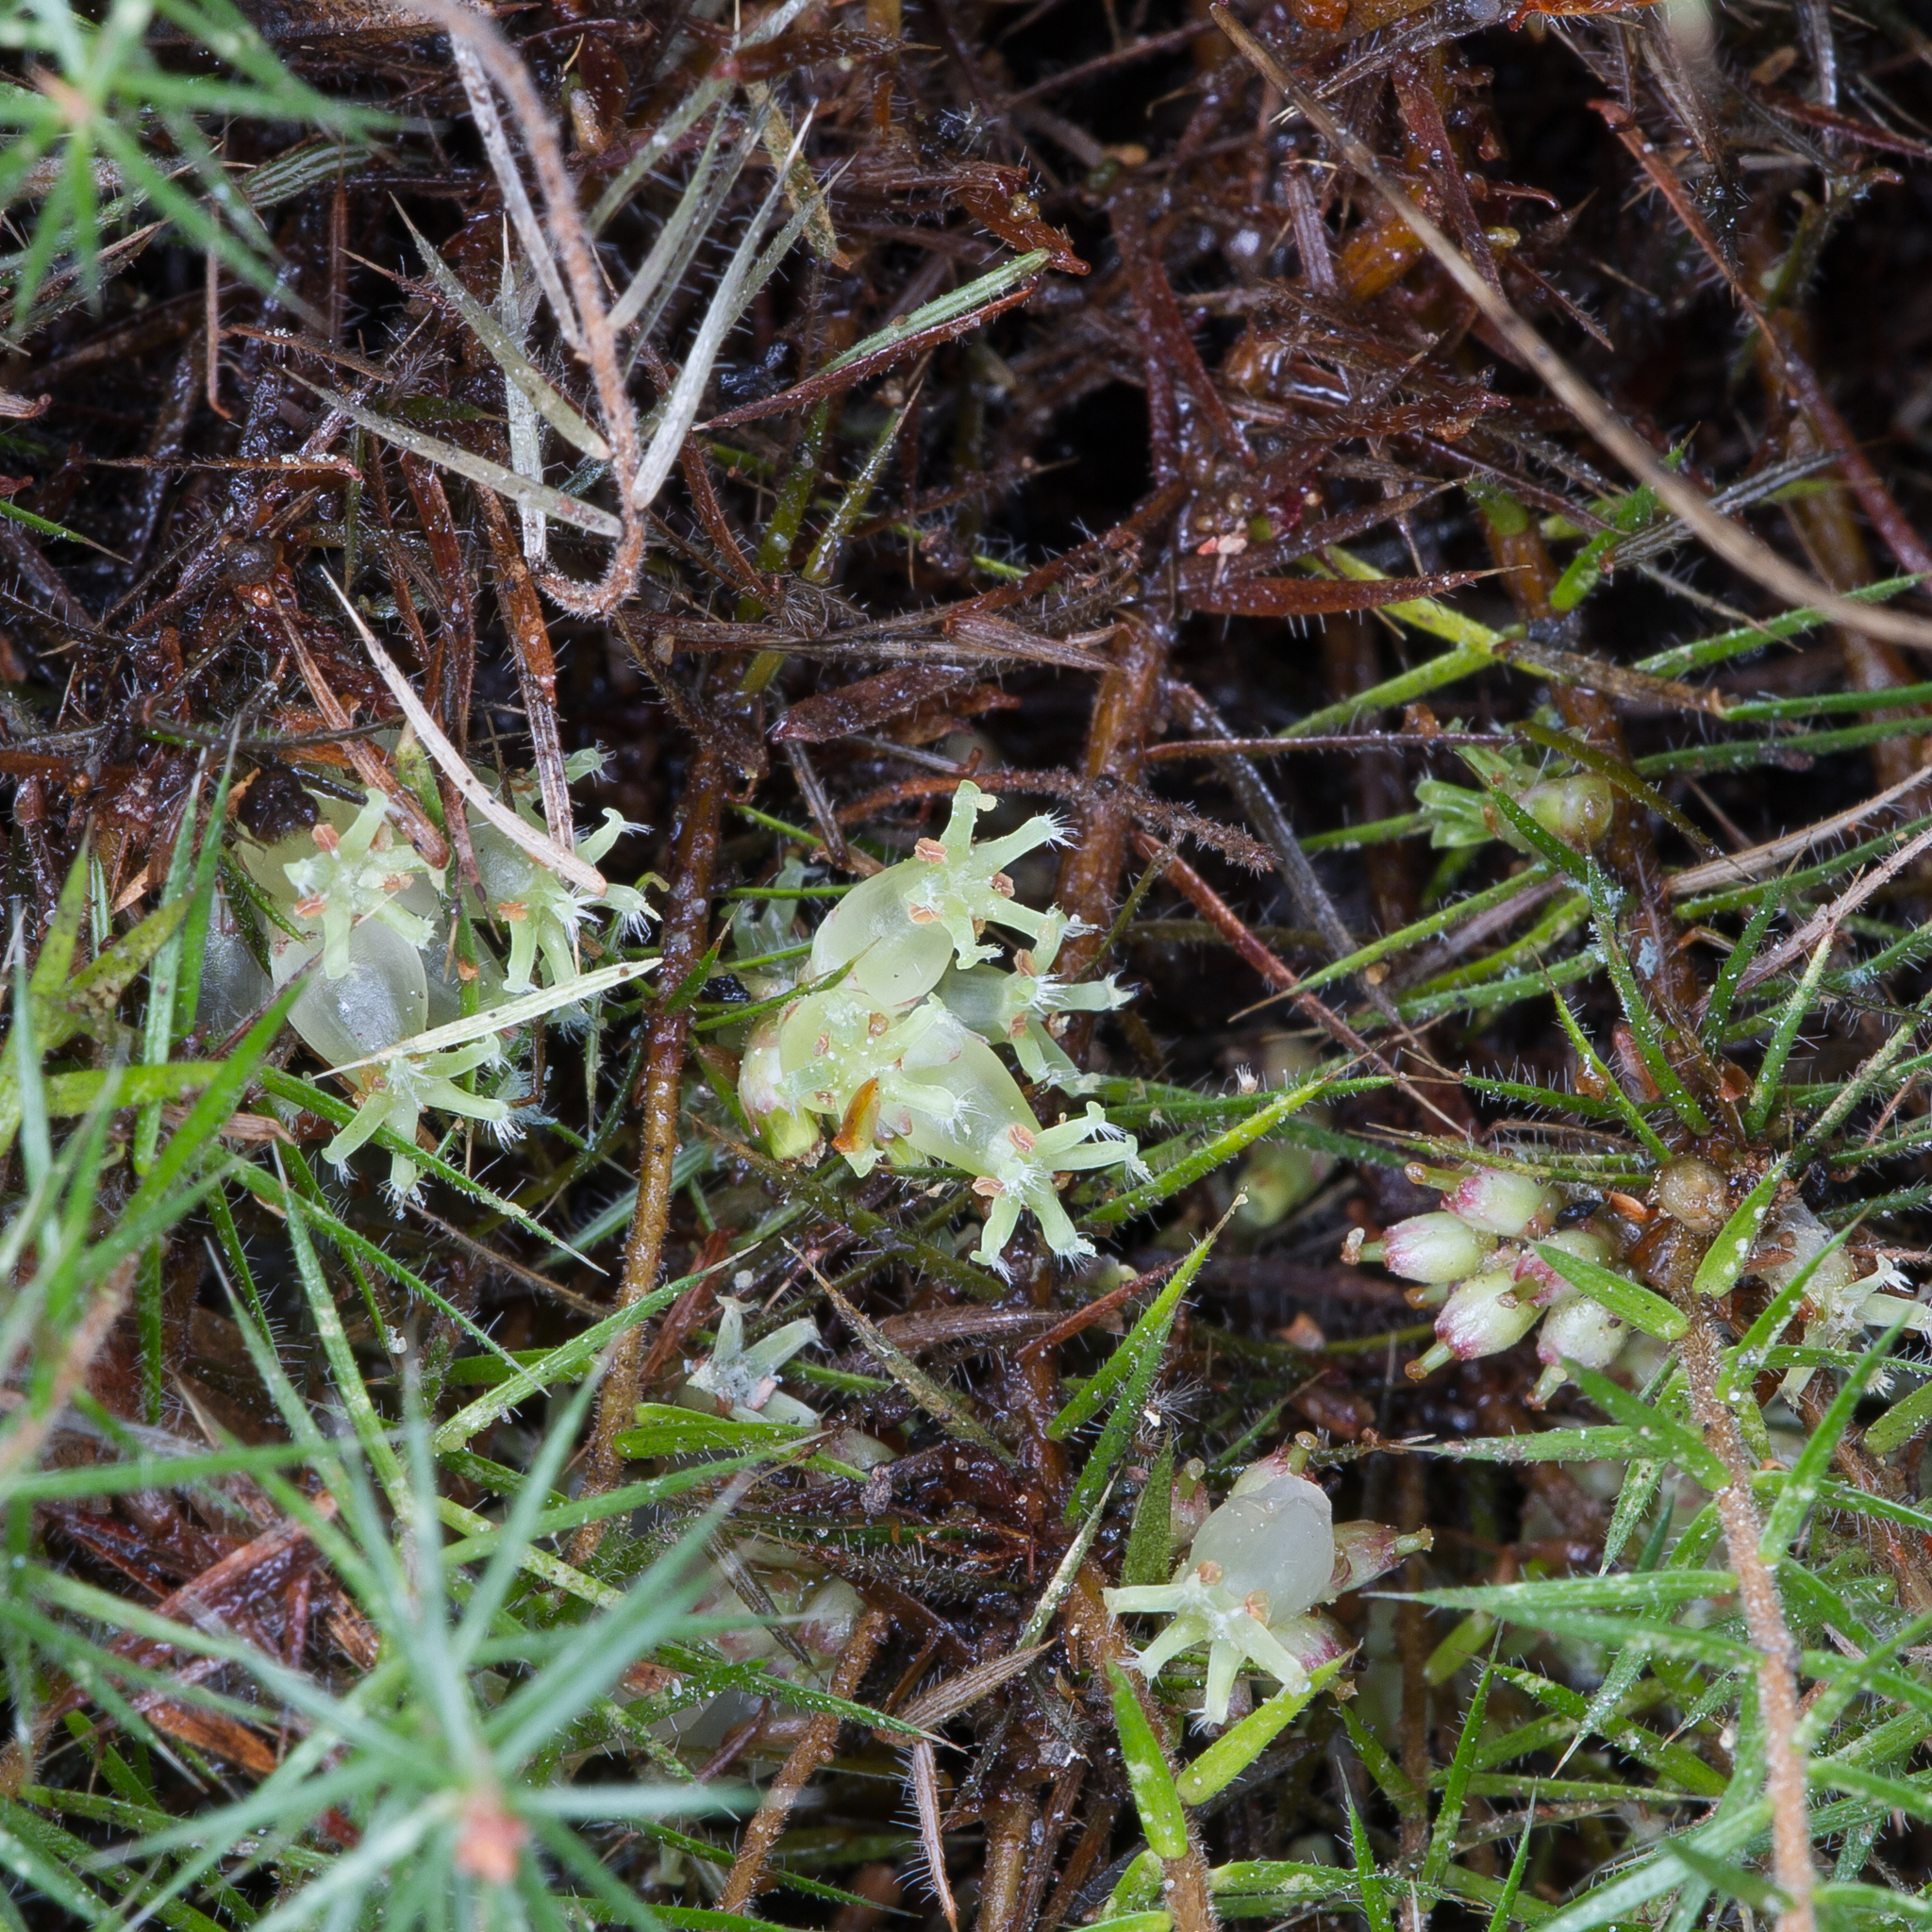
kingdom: Plantae
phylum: Tracheophyta
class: Magnoliopsida
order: Ericales
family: Ericaceae
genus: Acrotriche
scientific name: Acrotriche serrulata
